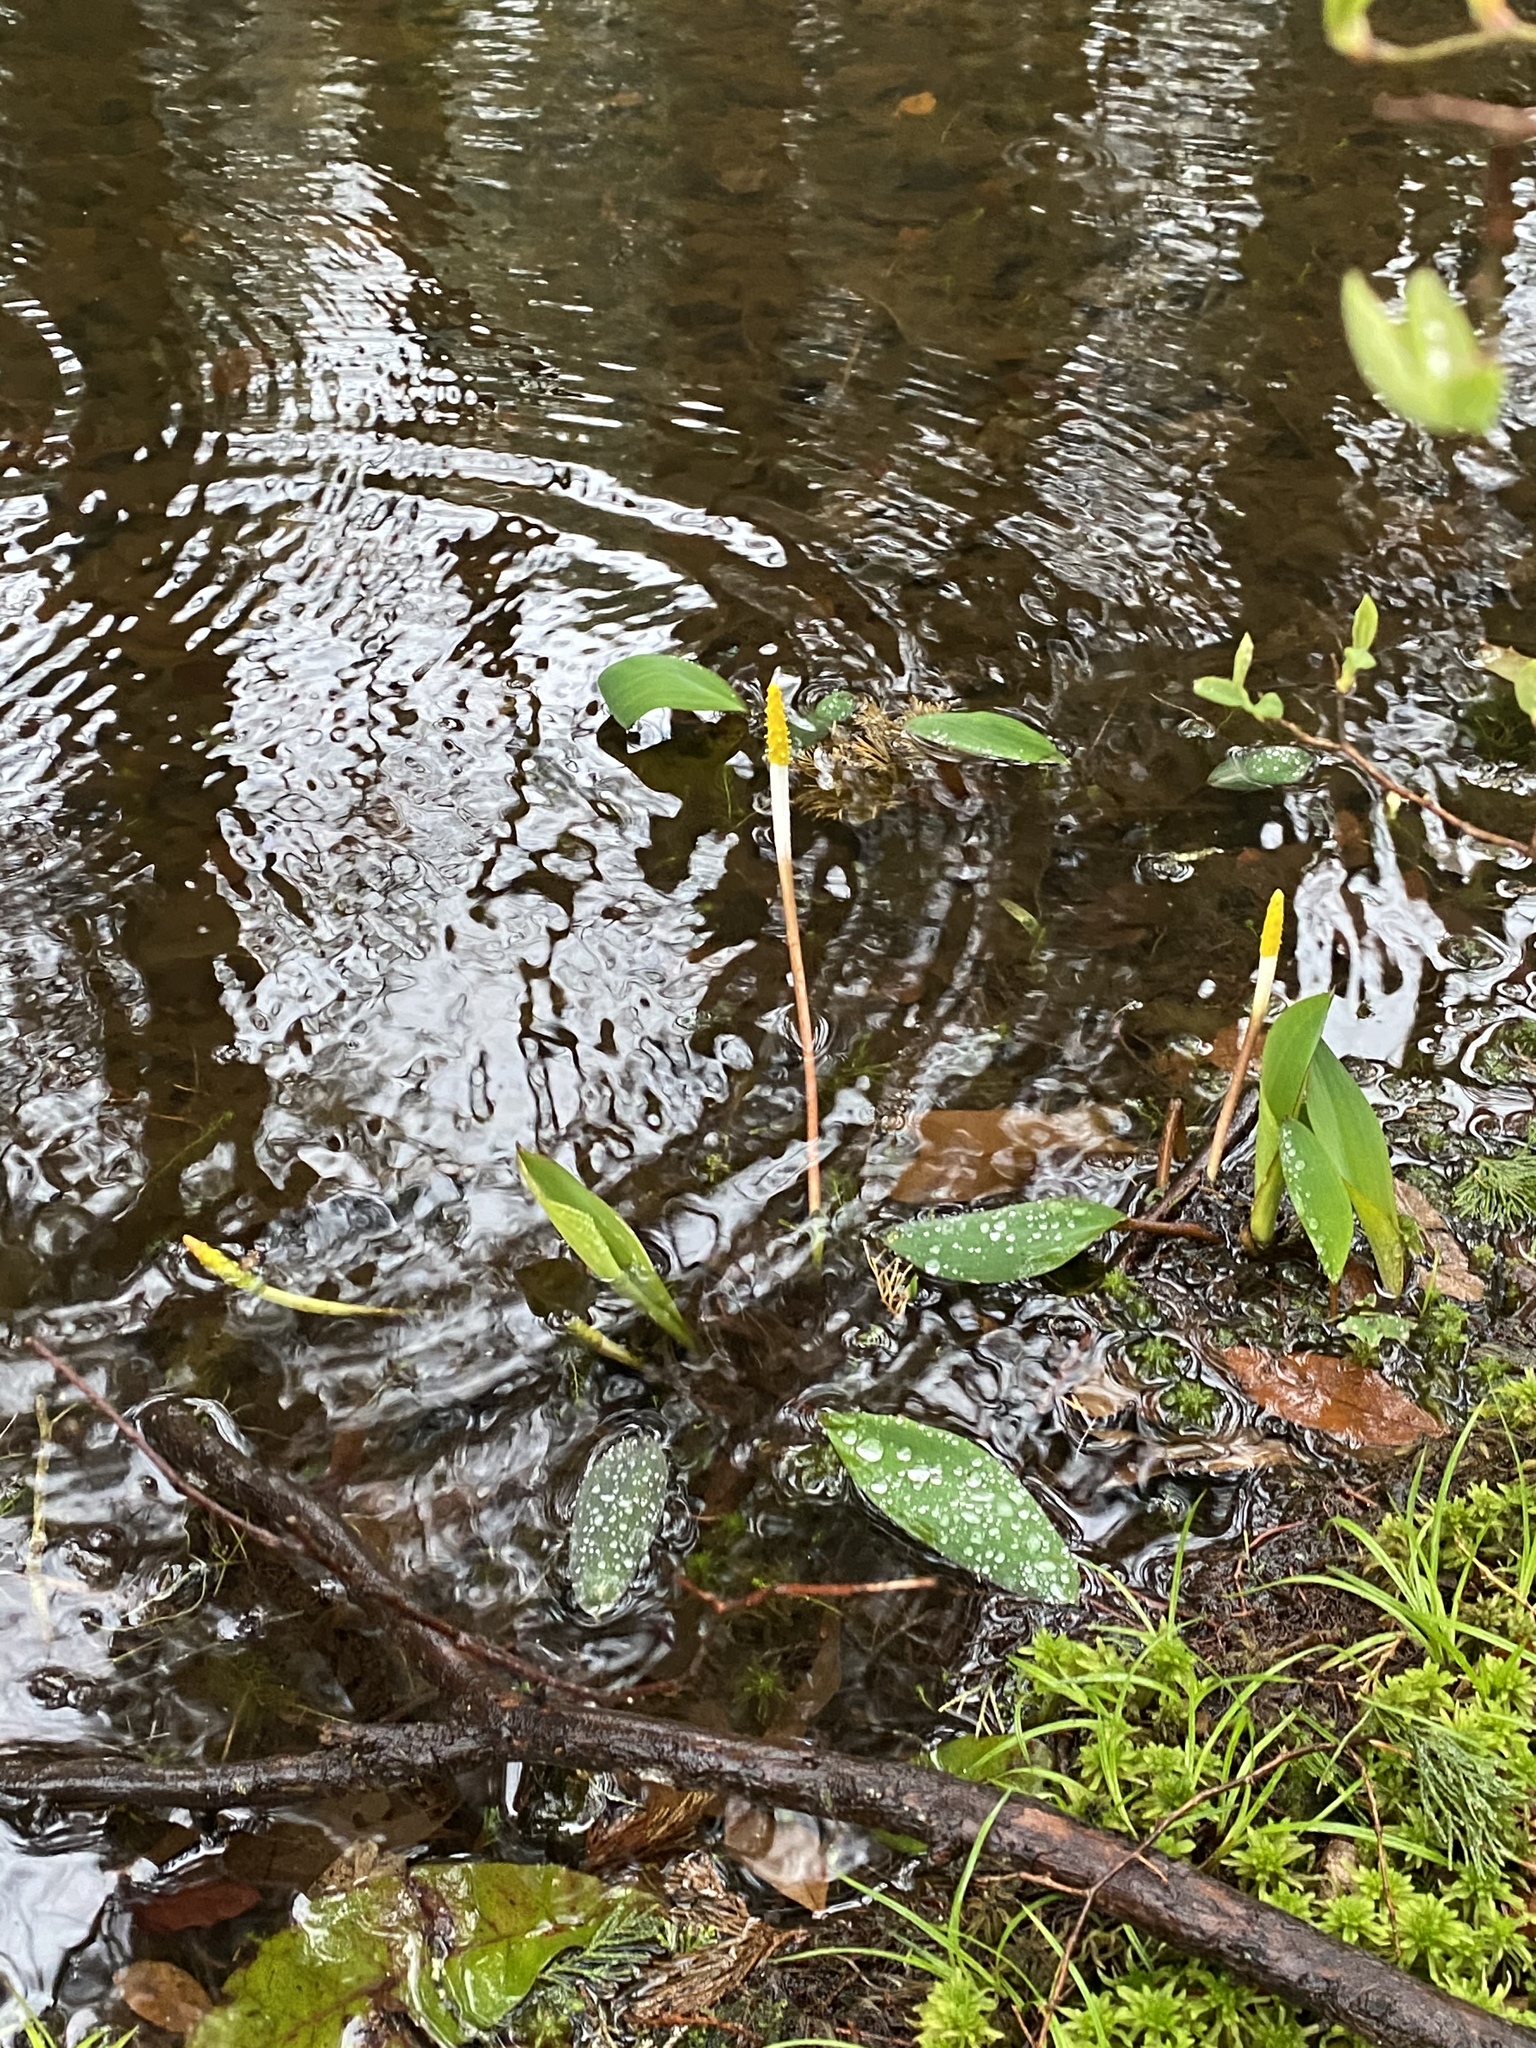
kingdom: Plantae
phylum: Tracheophyta
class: Liliopsida
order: Alismatales
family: Araceae
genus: Orontium
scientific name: Orontium aquaticum
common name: Golden-club
